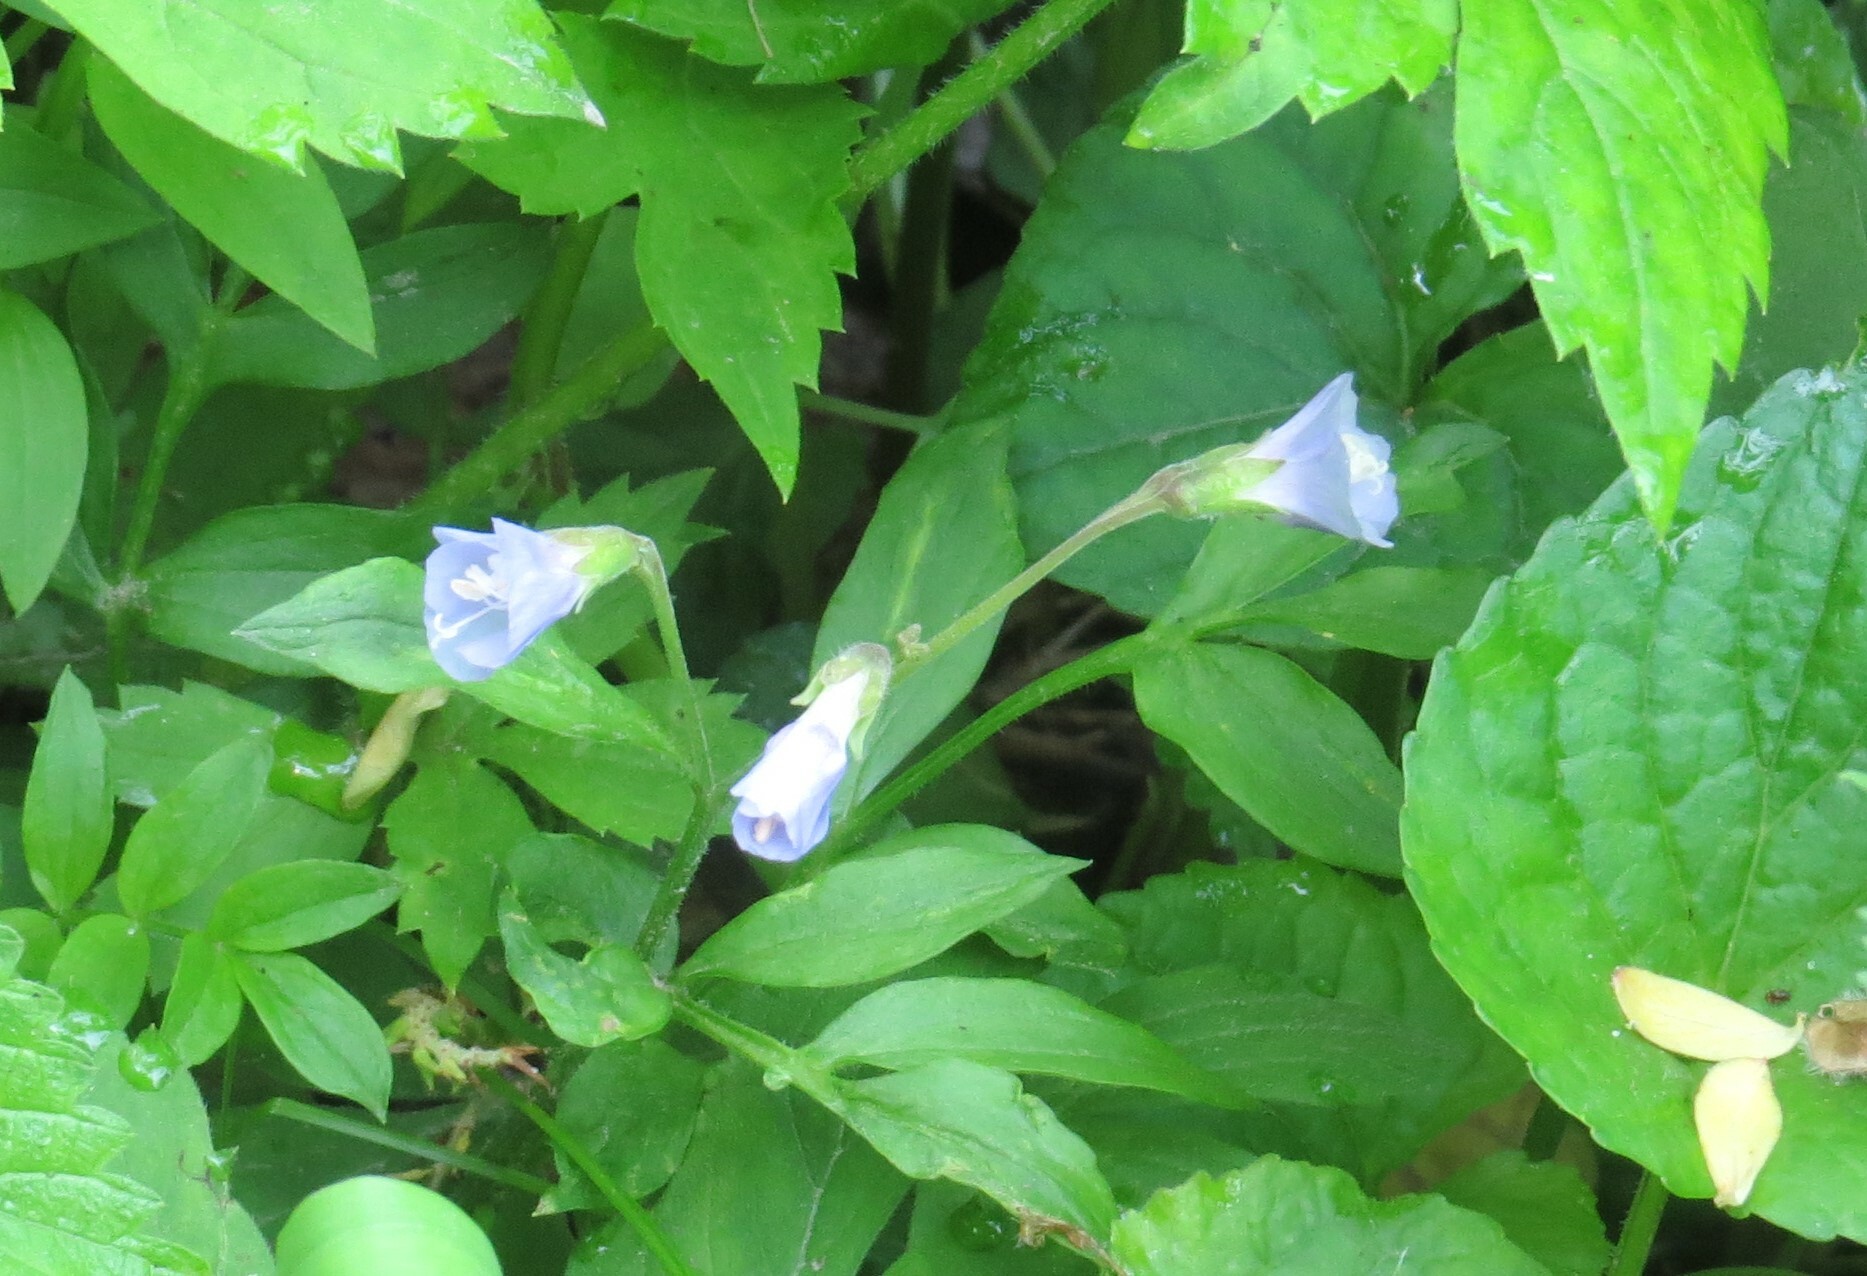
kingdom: Plantae
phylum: Tracheophyta
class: Magnoliopsida
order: Ericales
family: Polemoniaceae
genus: Polemonium
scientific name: Polemonium reptans
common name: Creeping jacob's-ladder
